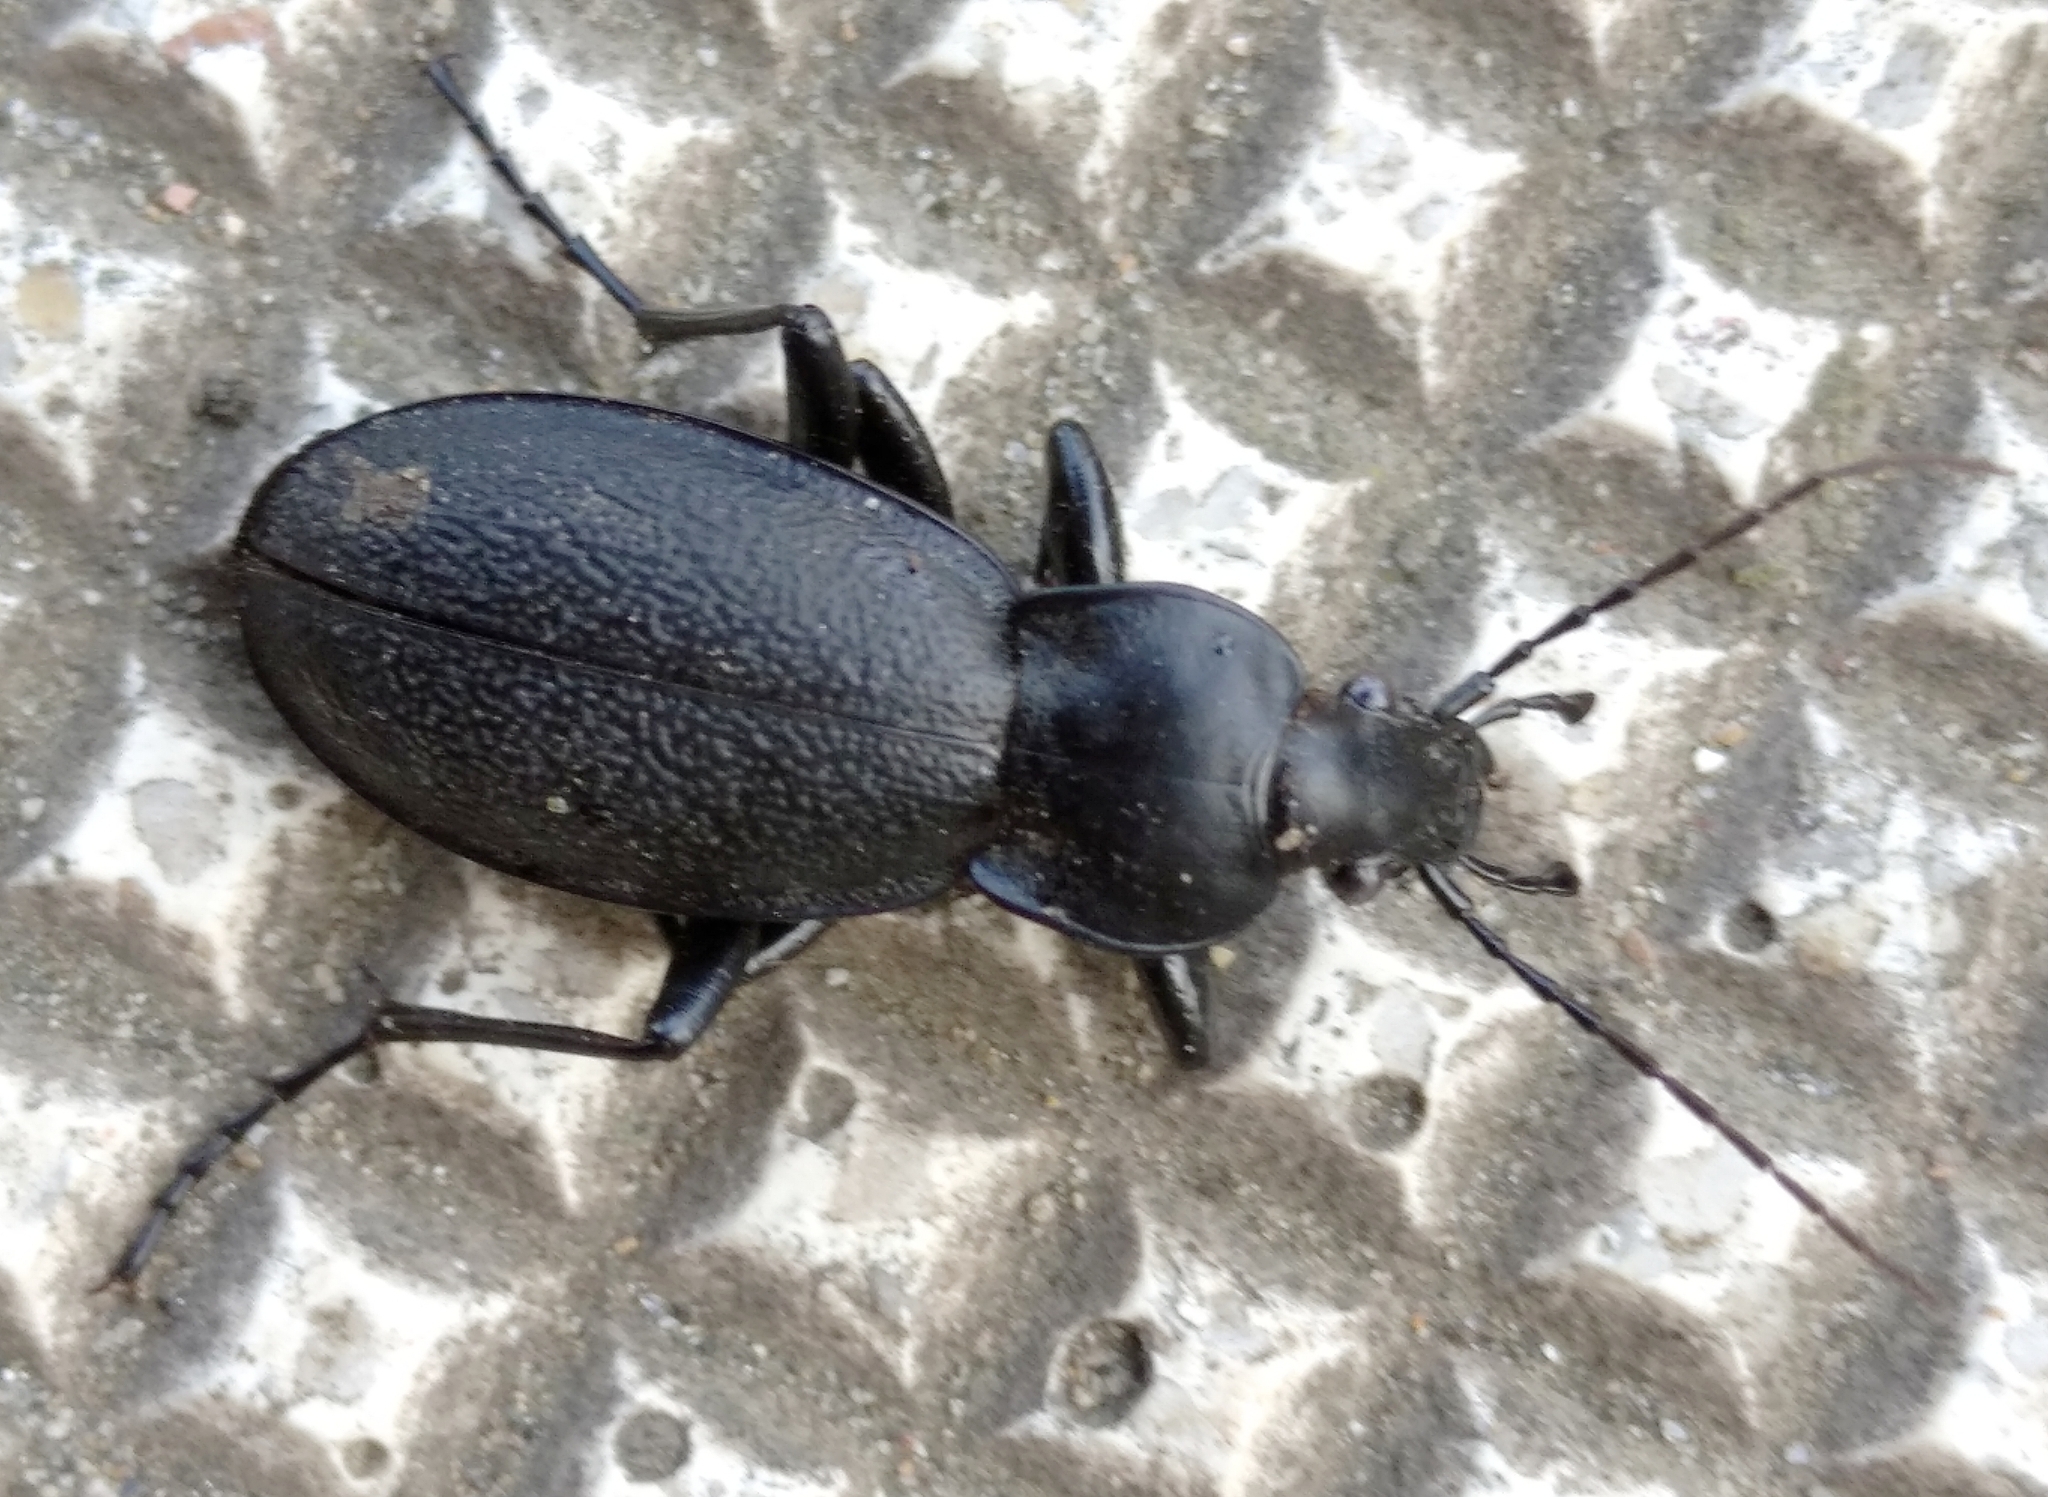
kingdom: Animalia
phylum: Arthropoda
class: Insecta
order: Coleoptera
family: Carabidae
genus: Carabus
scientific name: Carabus coriaceus
